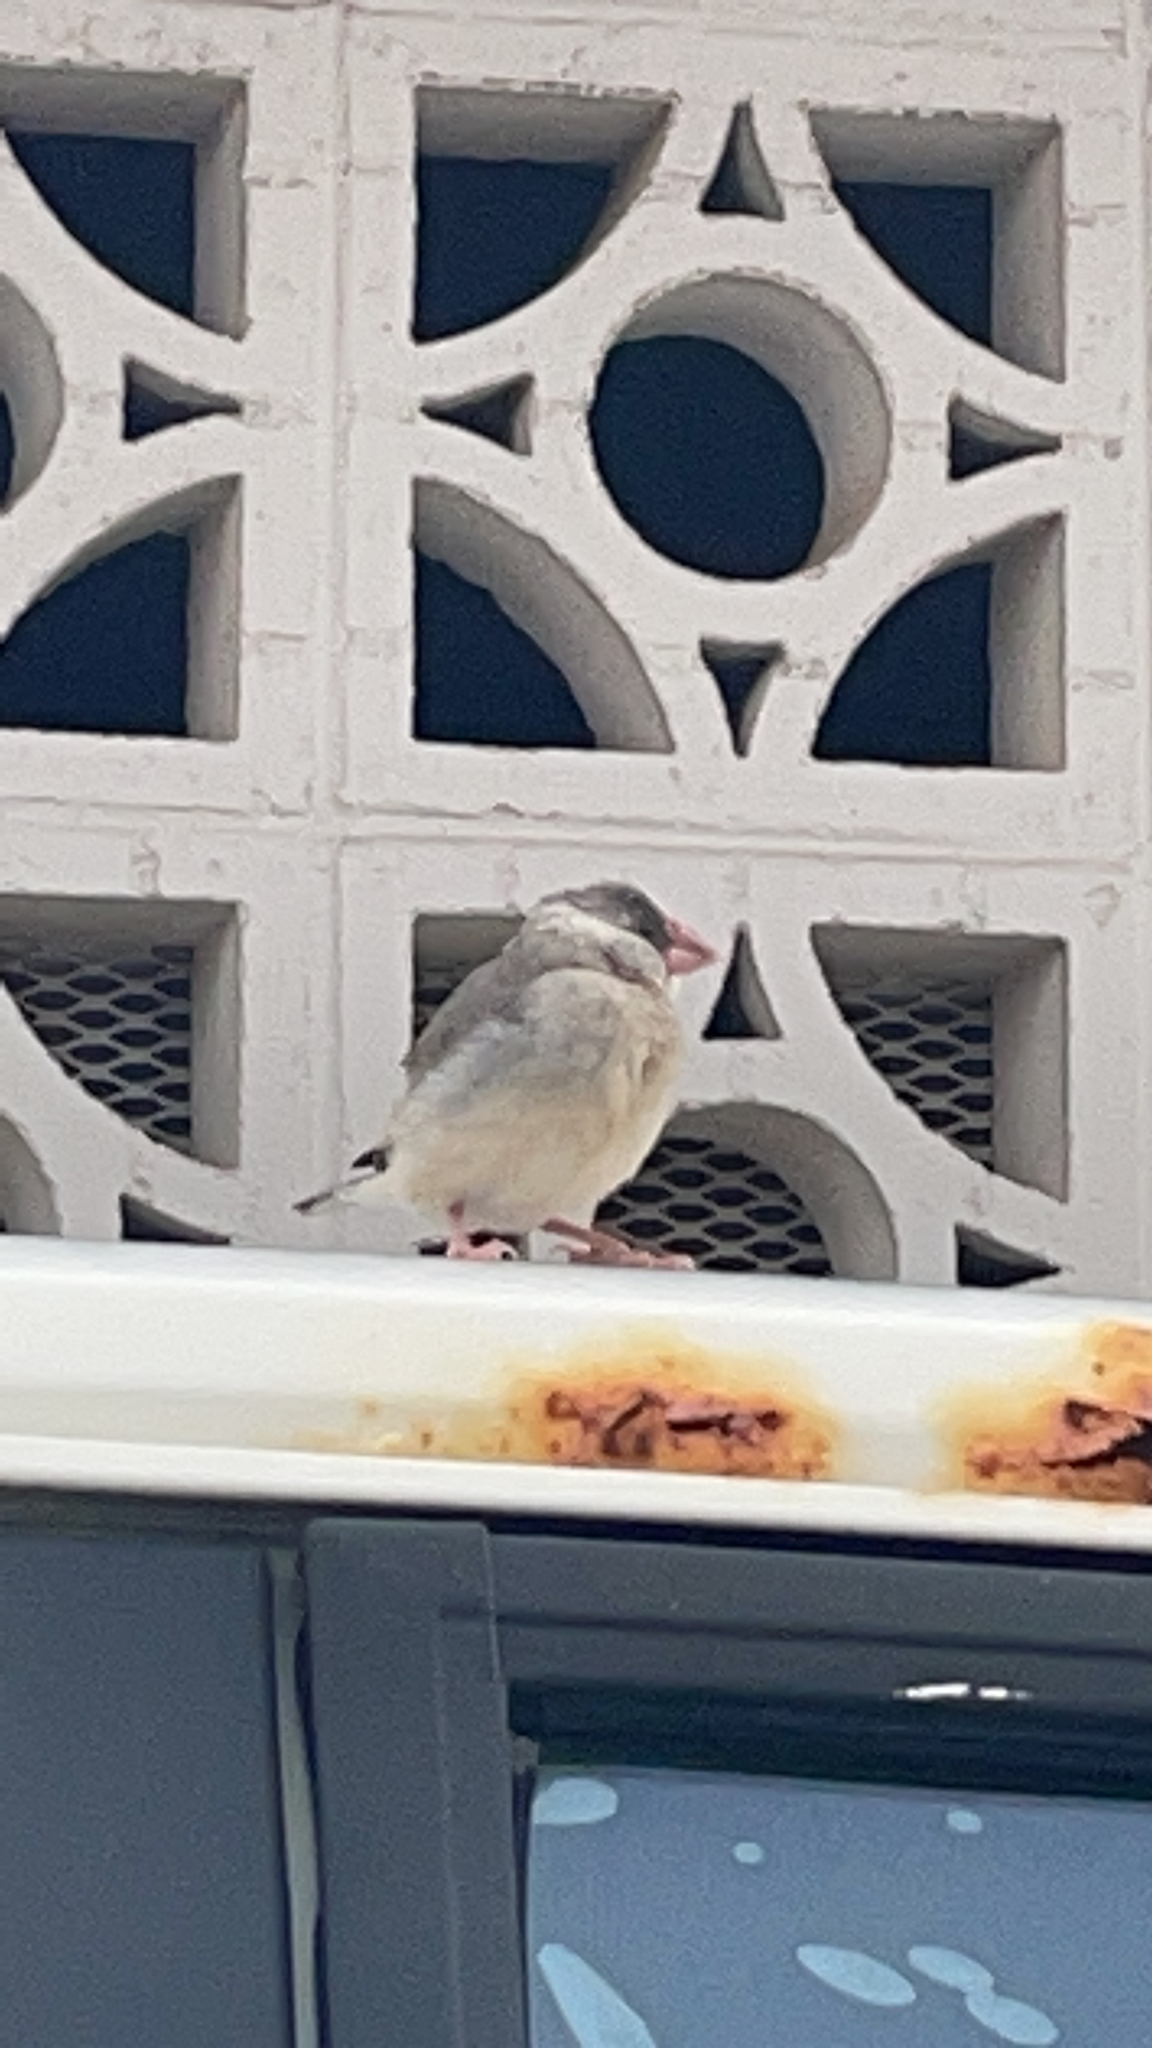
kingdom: Animalia
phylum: Chordata
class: Aves
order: Passeriformes
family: Estrildidae
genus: Lonchura
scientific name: Lonchura oryzivora
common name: Java sparrow
